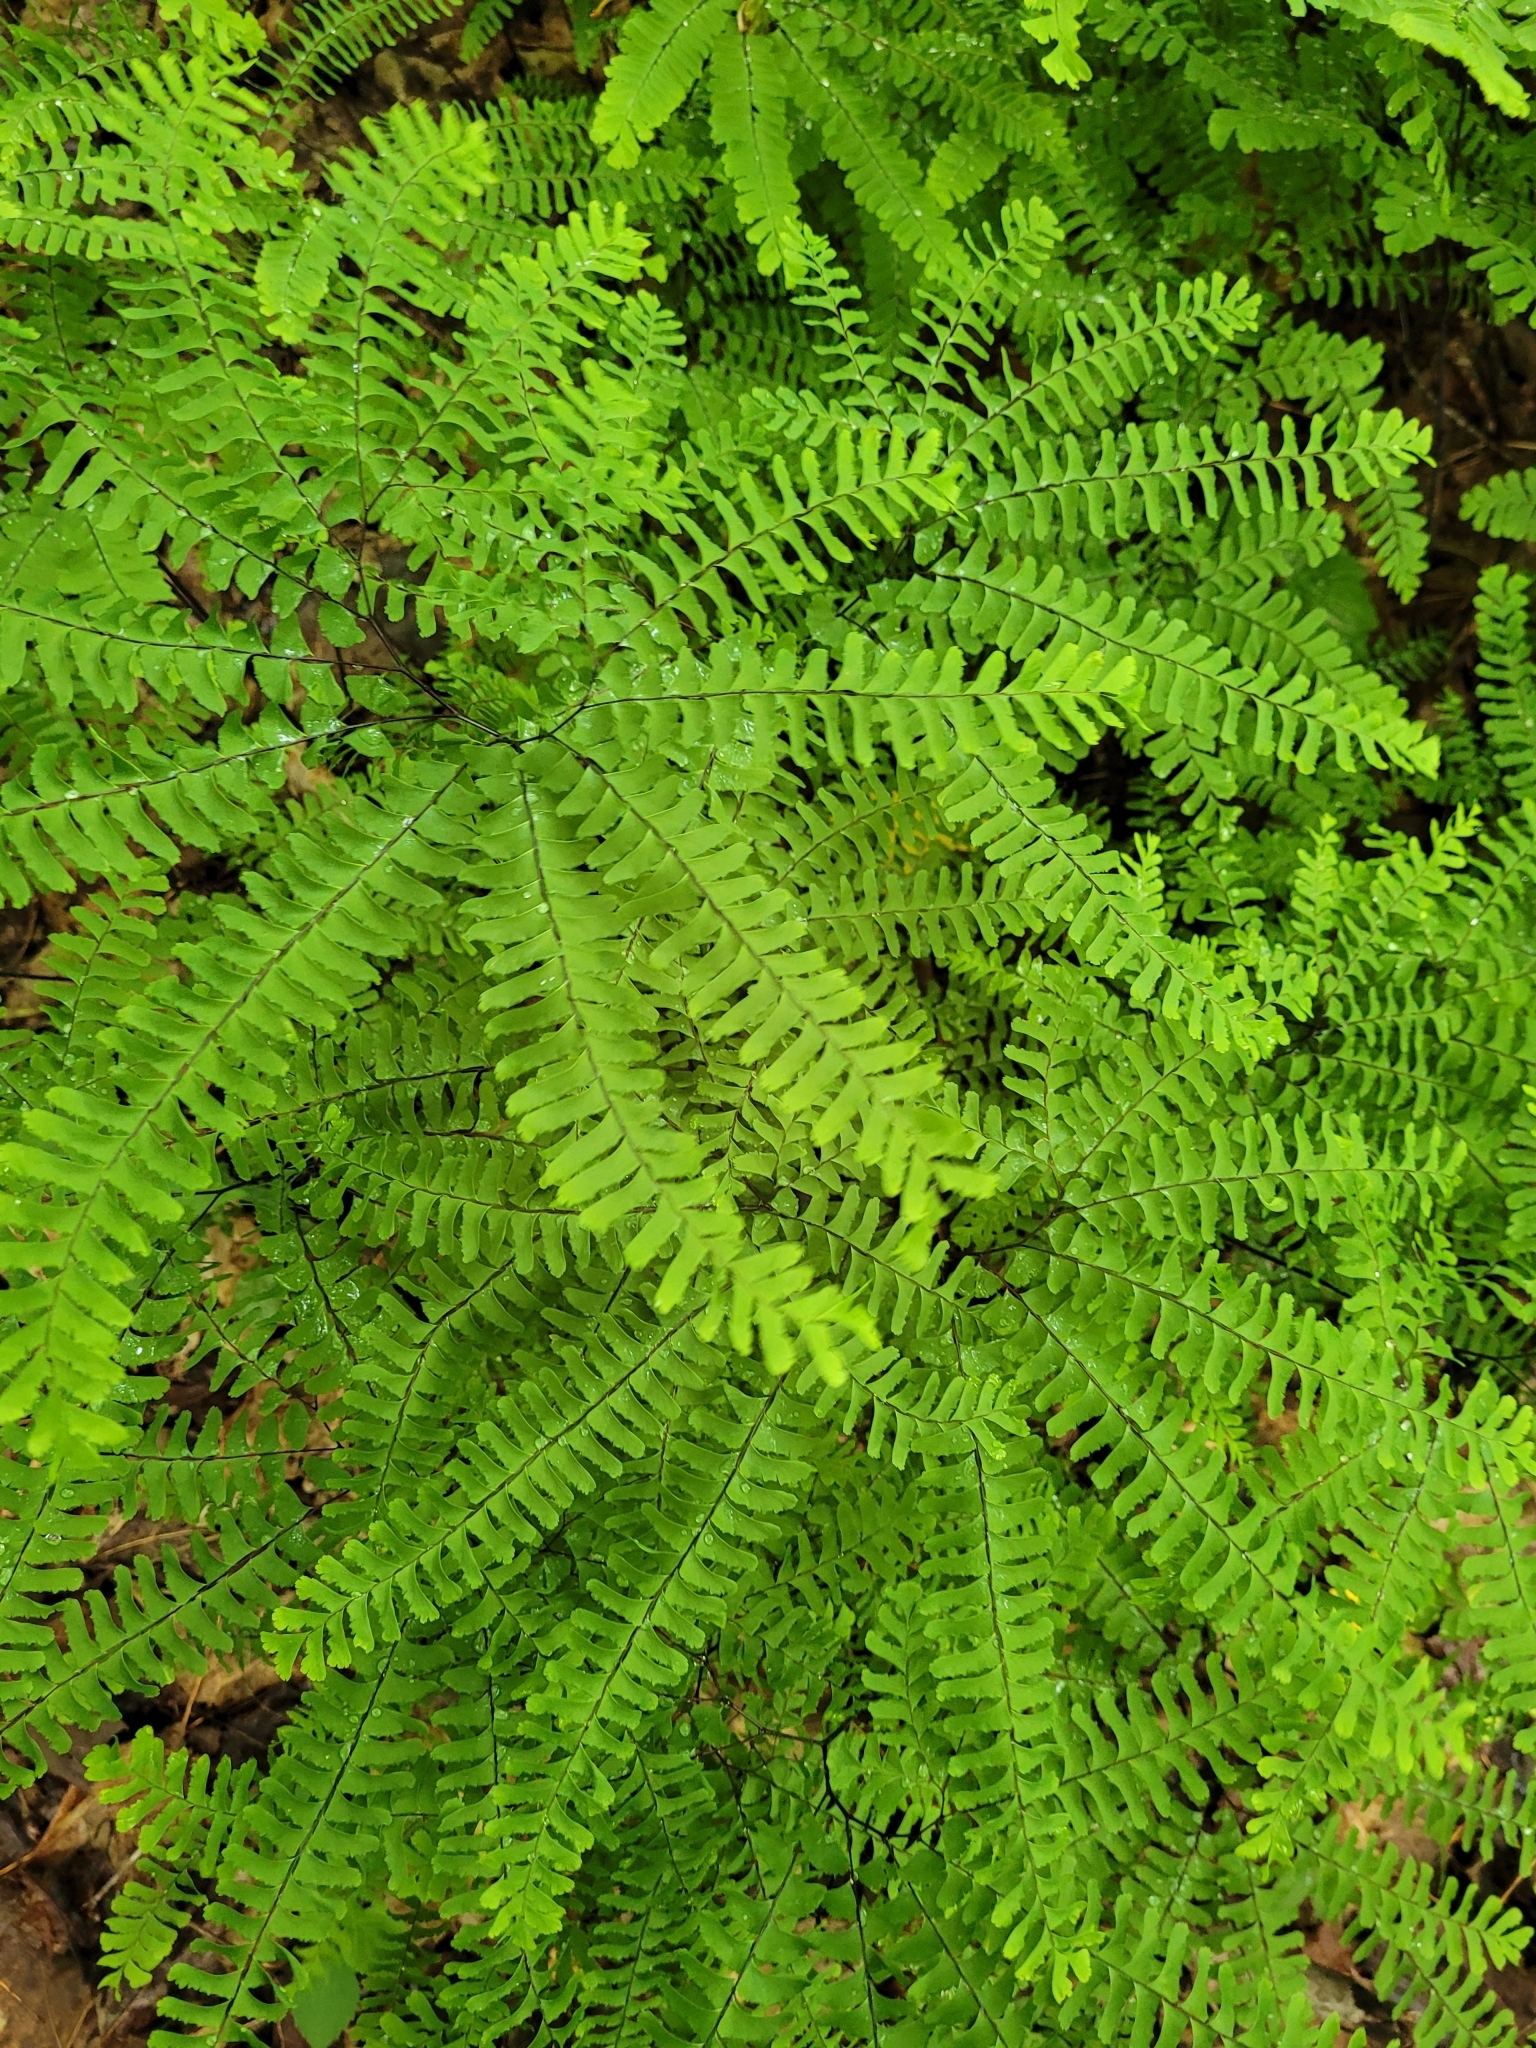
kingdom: Plantae
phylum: Tracheophyta
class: Polypodiopsida
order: Polypodiales
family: Pteridaceae
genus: Adiantum
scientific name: Adiantum pedatum
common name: Five-finger fern
